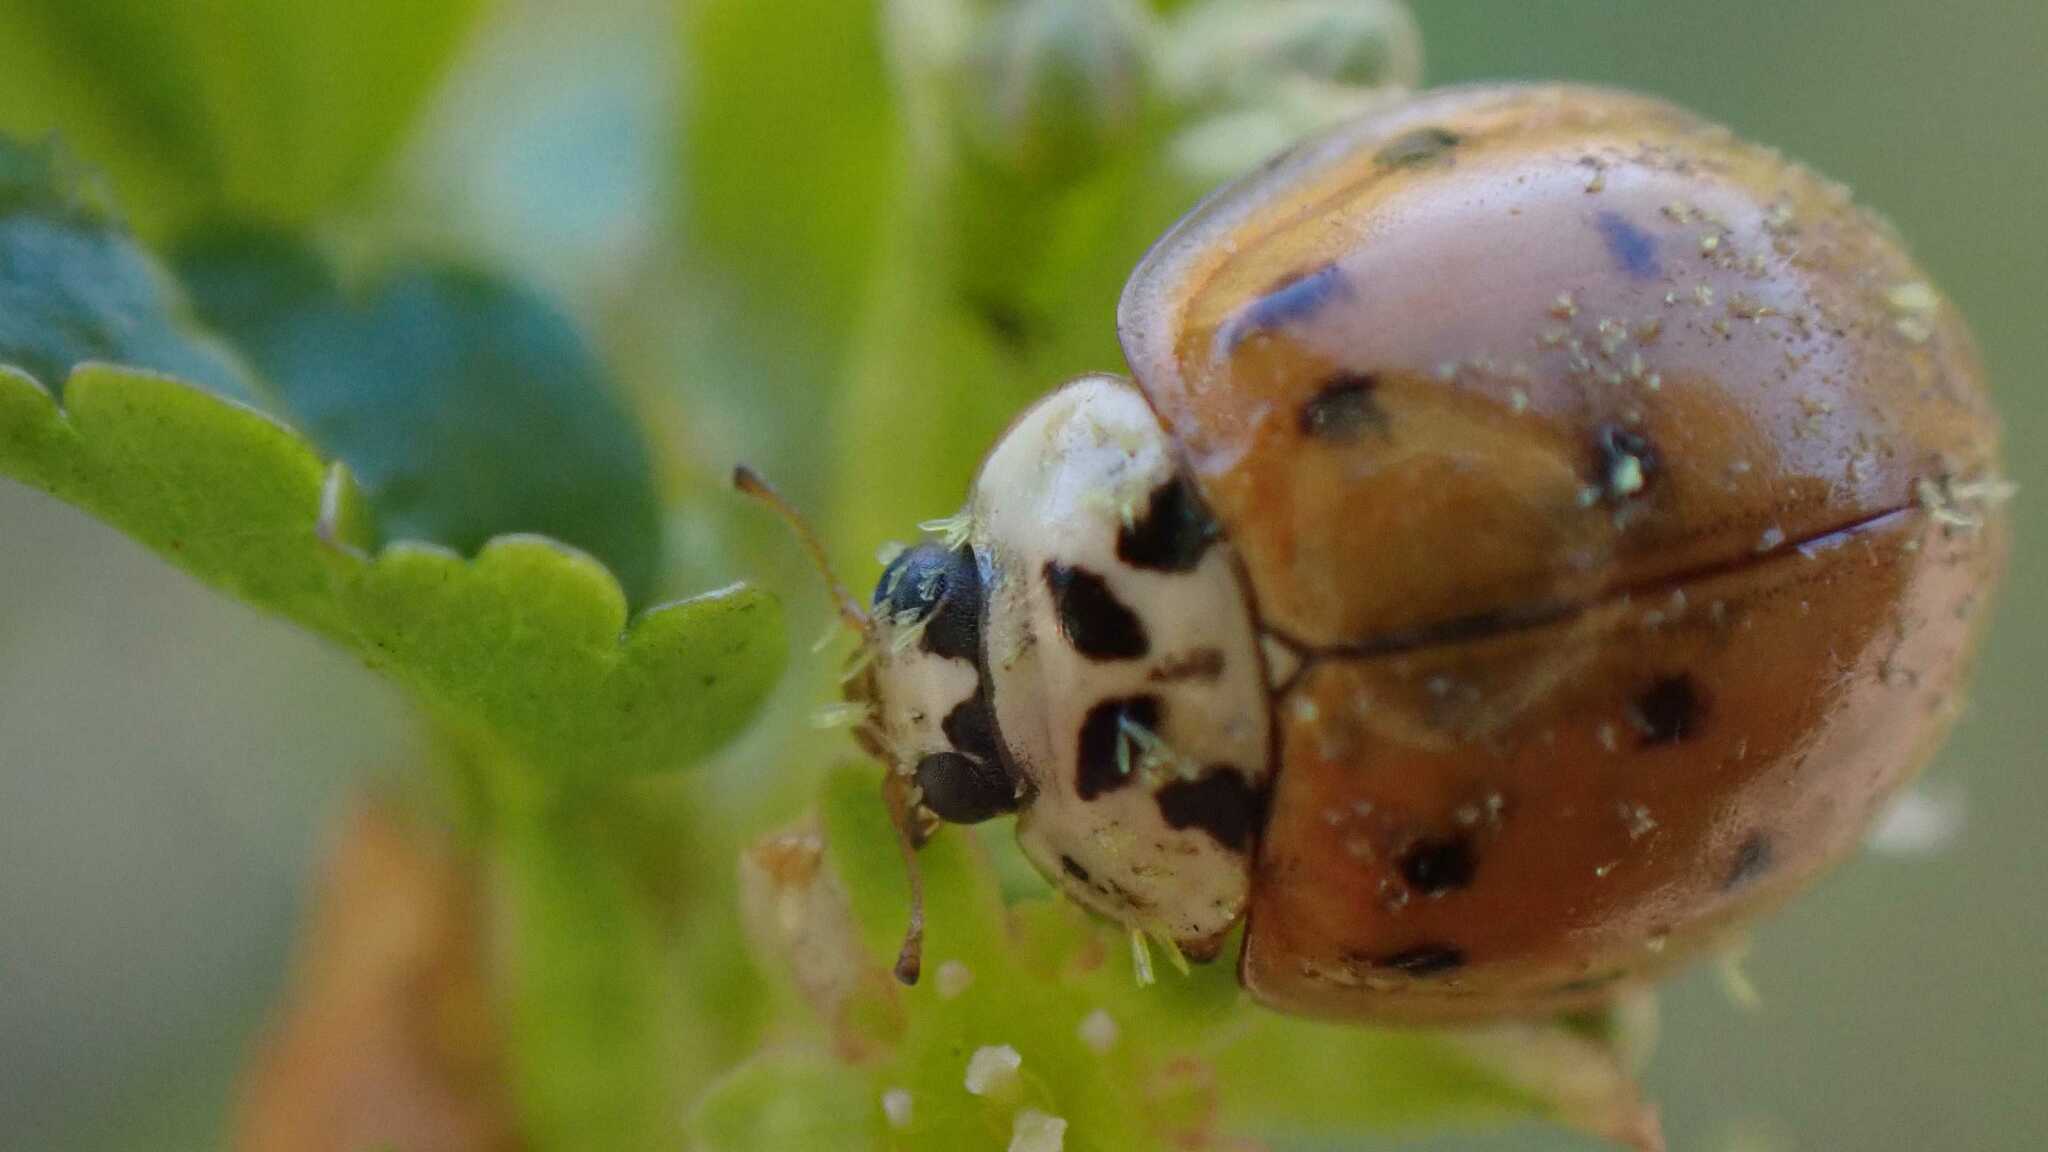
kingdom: Animalia
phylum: Arthropoda
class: Insecta
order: Coleoptera
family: Coccinellidae
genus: Harmonia
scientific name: Harmonia axyridis
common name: Harlequin ladybird
